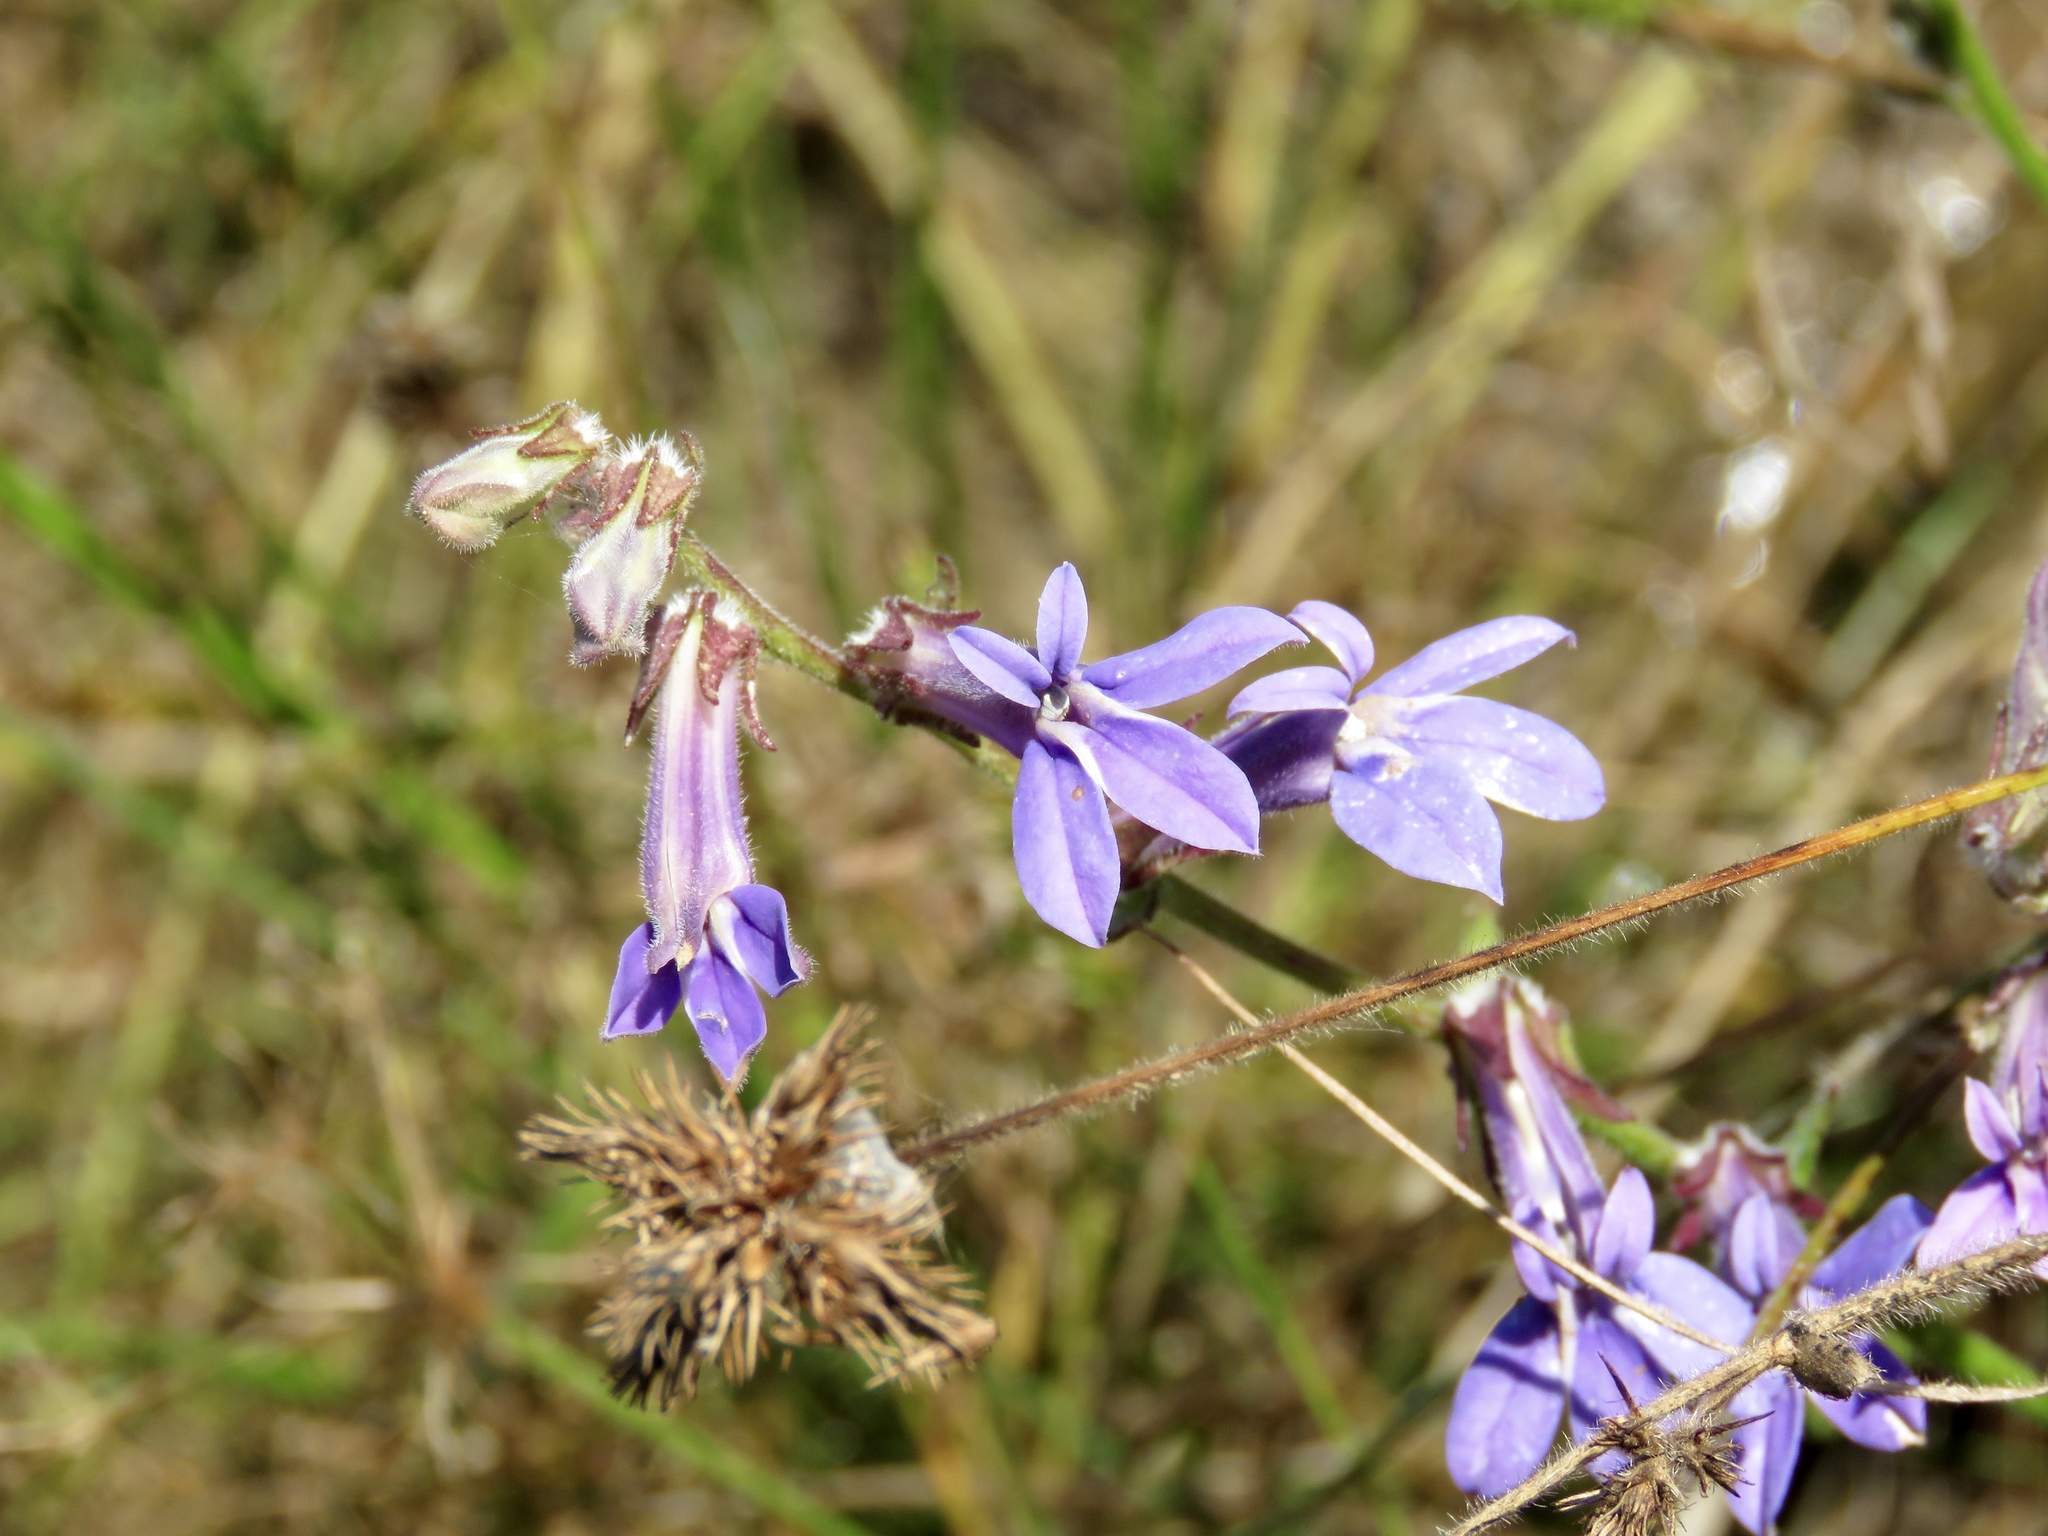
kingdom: Plantae
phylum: Tracheophyta
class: Magnoliopsida
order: Asterales
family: Campanulaceae
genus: Lobelia
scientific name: Lobelia reverchonii
